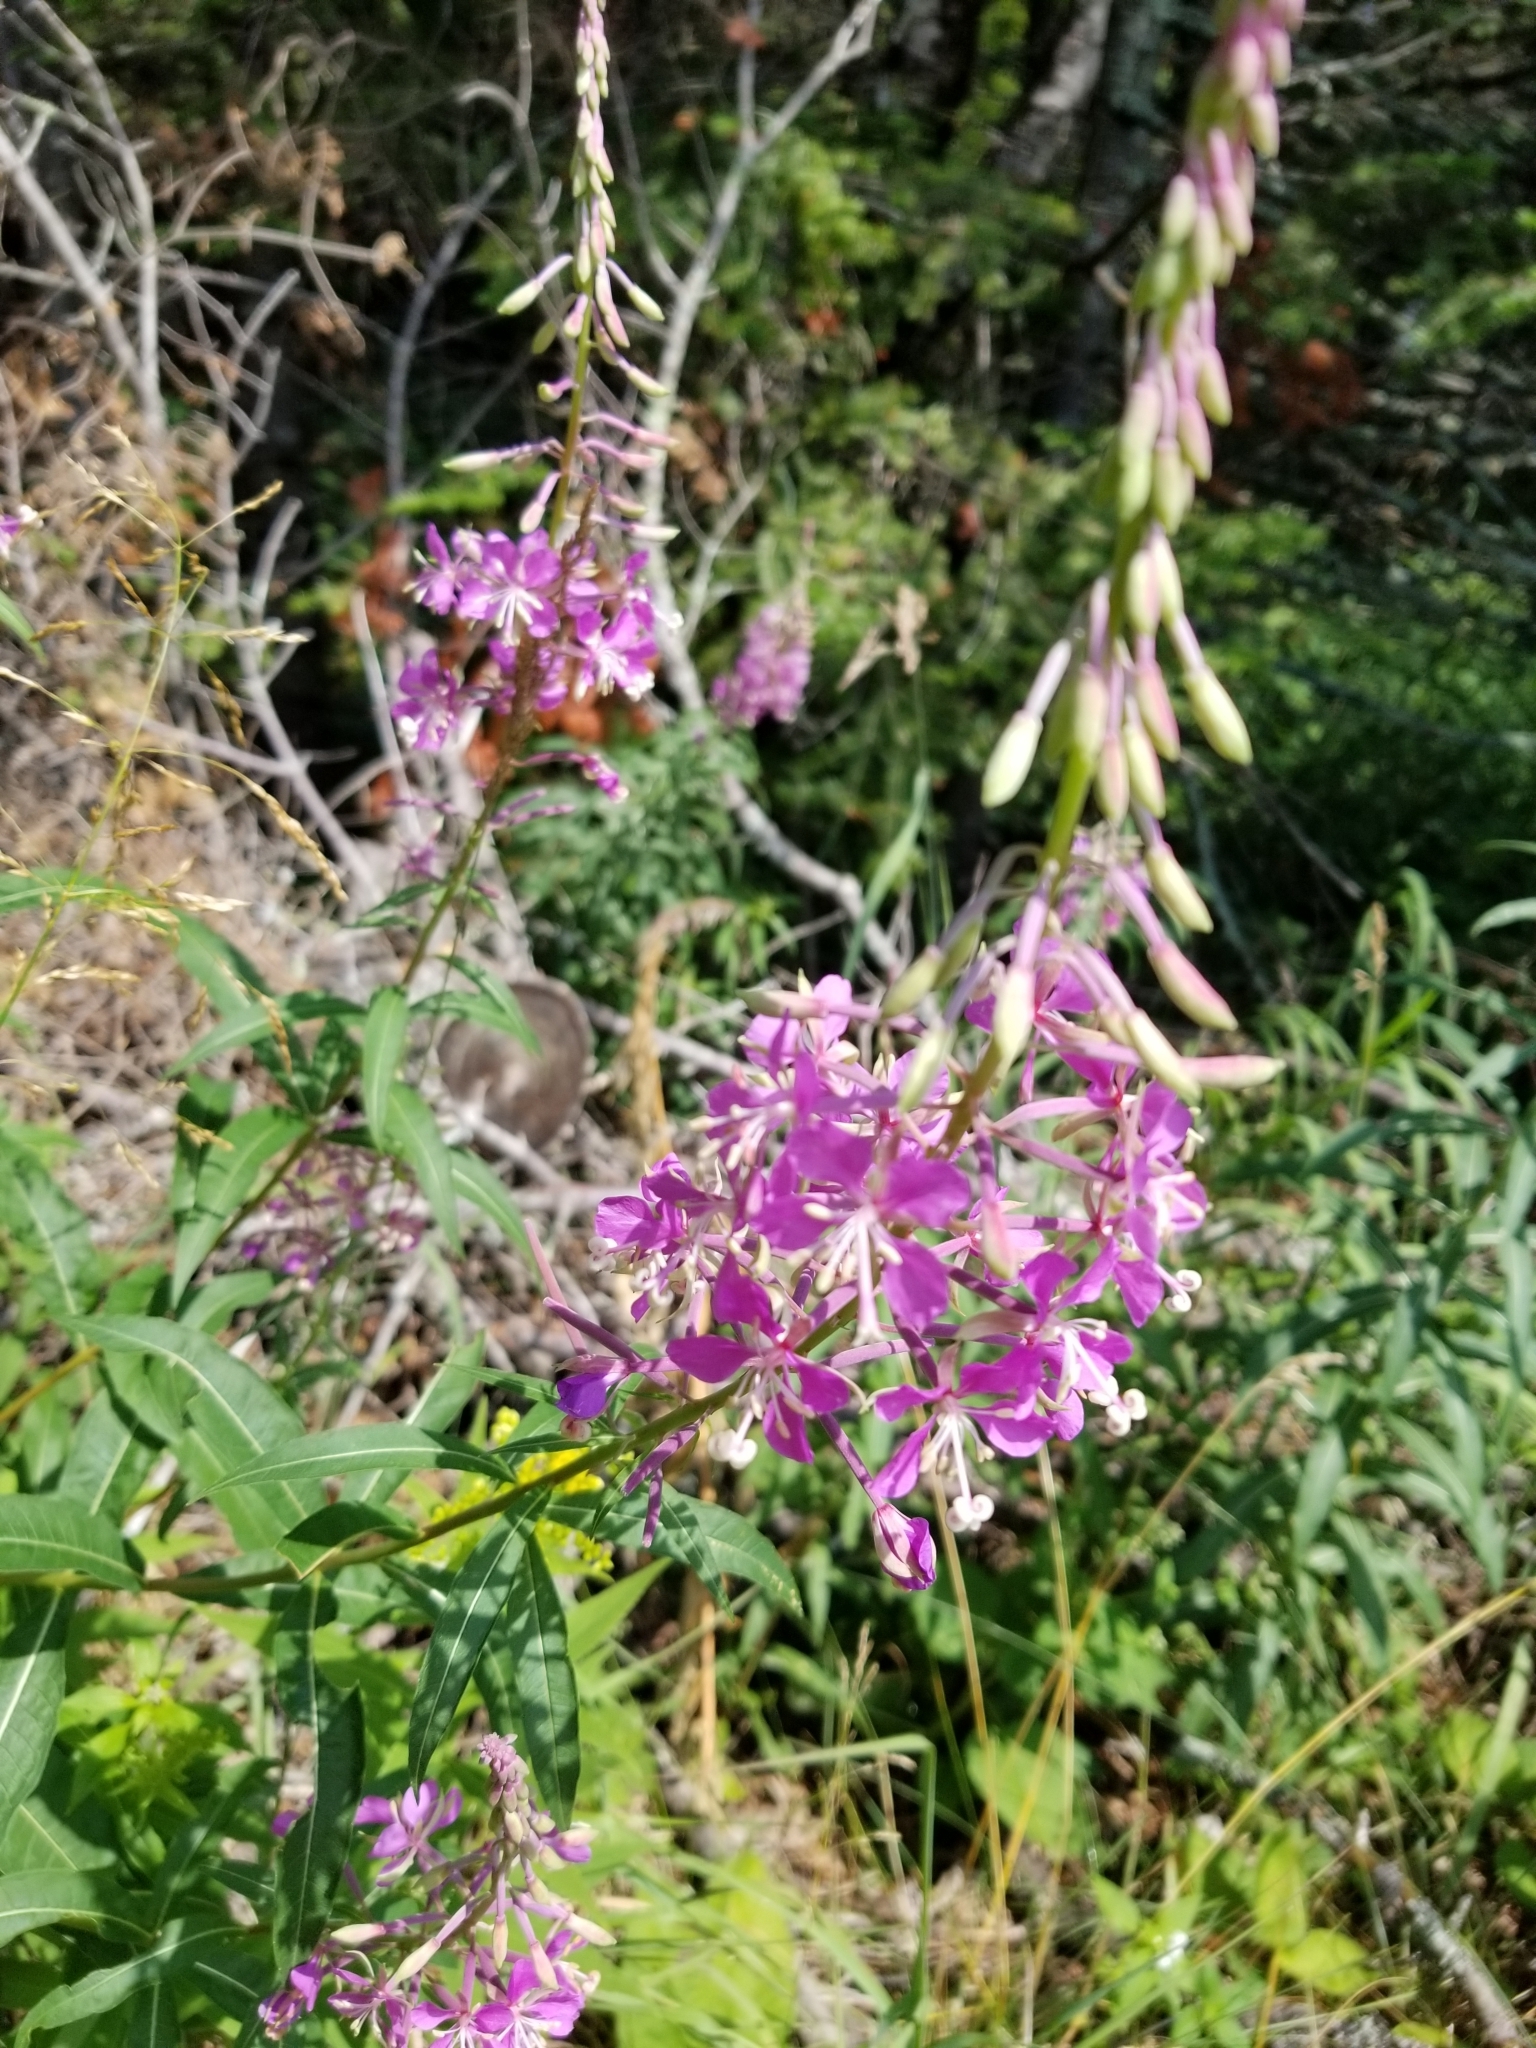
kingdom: Plantae
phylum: Tracheophyta
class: Magnoliopsida
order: Myrtales
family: Onagraceae
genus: Chamaenerion
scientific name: Chamaenerion angustifolium
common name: Fireweed
